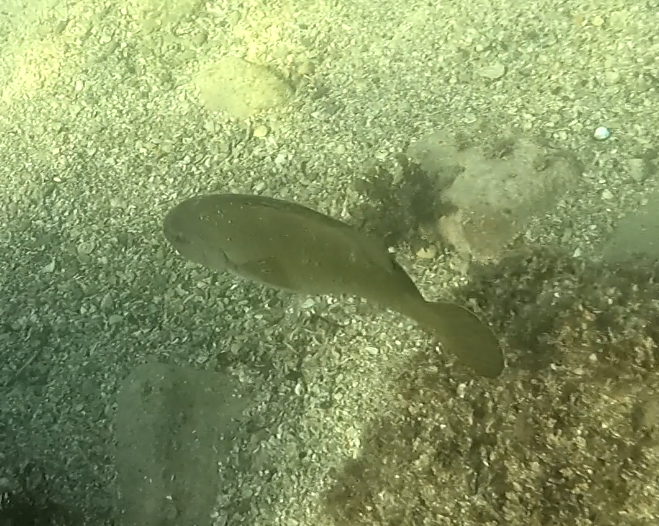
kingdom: Animalia
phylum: Chordata
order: Perciformes
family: Labridae
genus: Achoerodus
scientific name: Achoerodus viridis
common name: Brown groper
